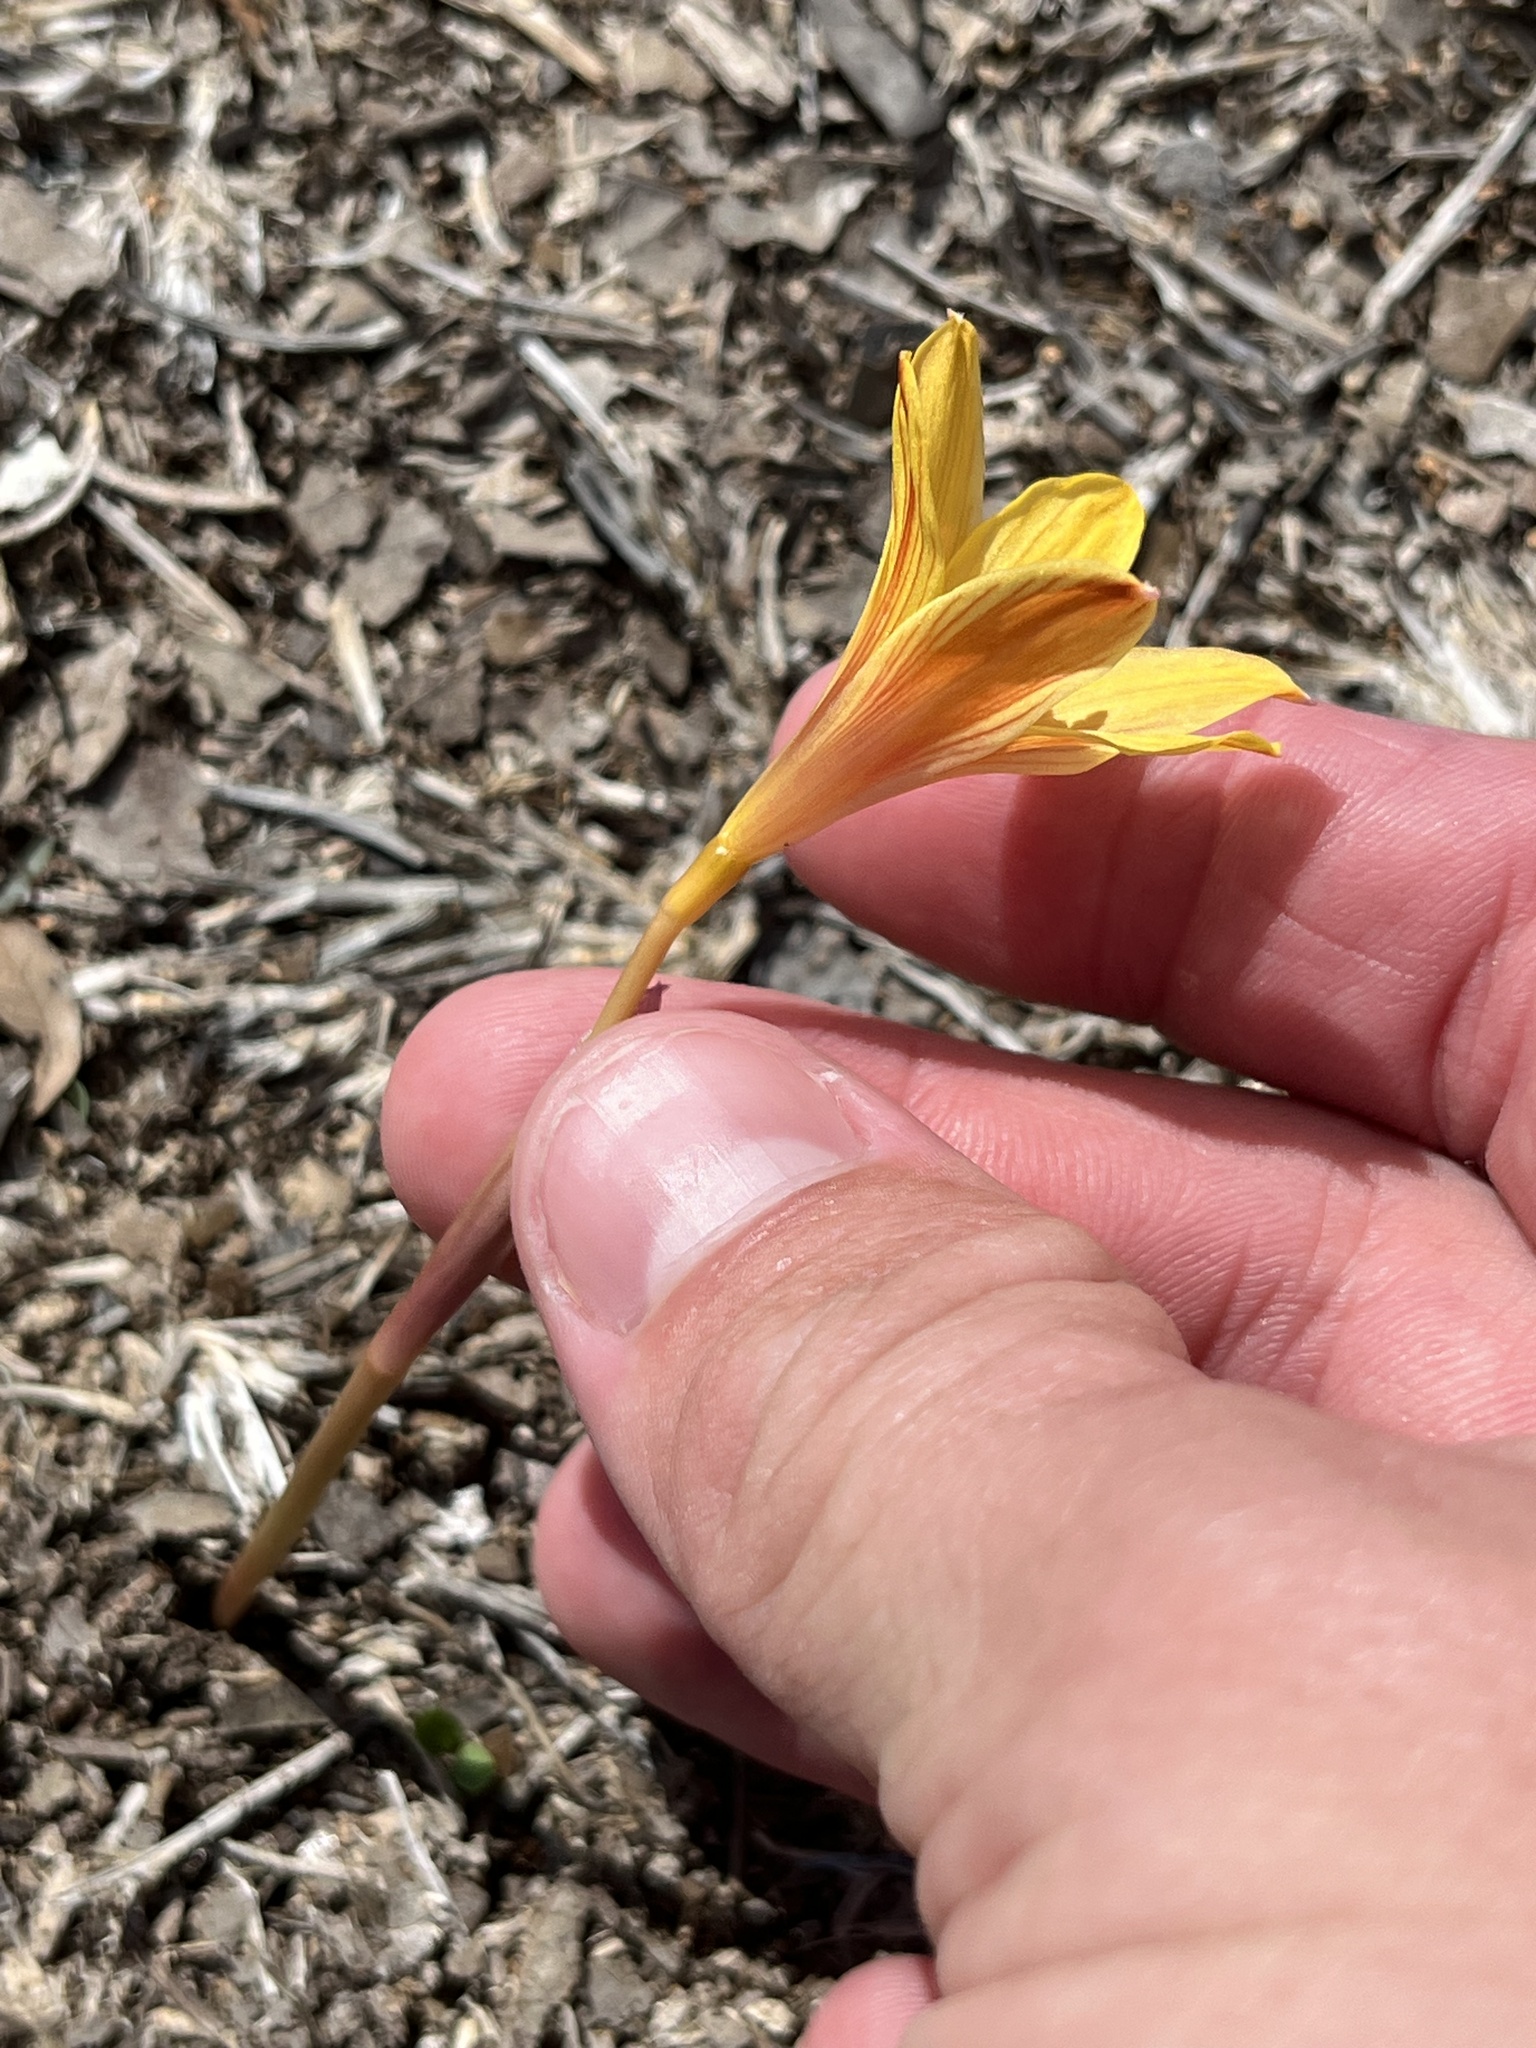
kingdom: Plantae
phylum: Tracheophyta
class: Liliopsida
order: Asparagales
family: Amaryllidaceae
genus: Zephyranthes
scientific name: Zephyranthes tubispatha
